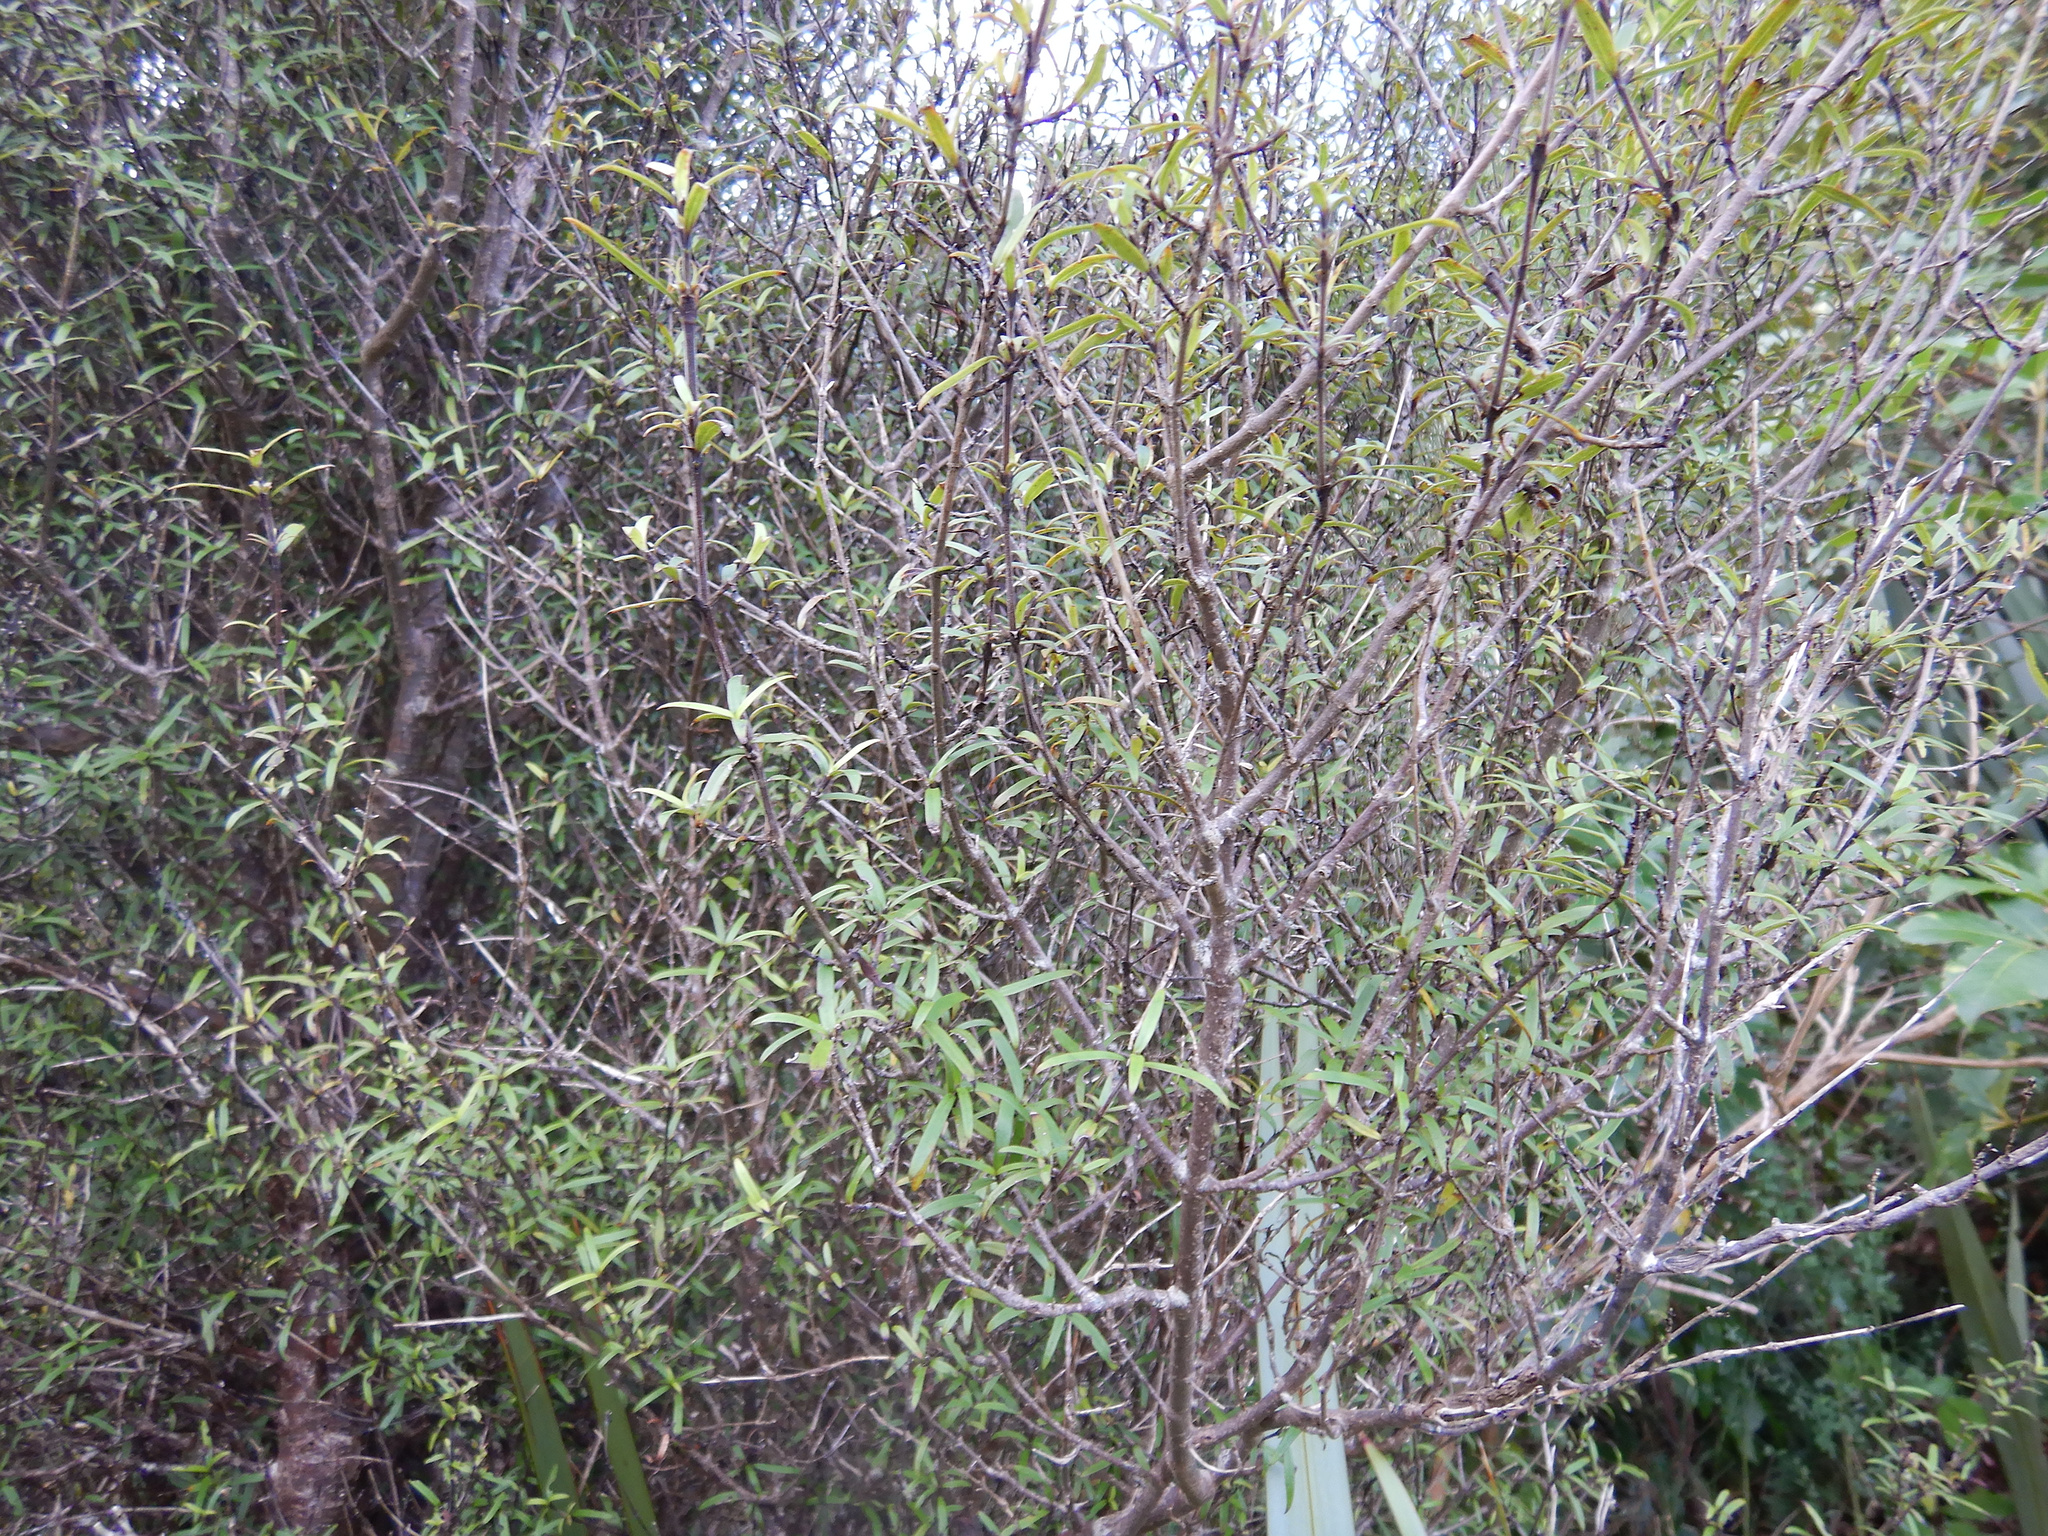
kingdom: Plantae
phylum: Tracheophyta
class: Magnoliopsida
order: Gentianales
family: Rubiaceae
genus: Coprosma
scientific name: Coprosma linariifolia
